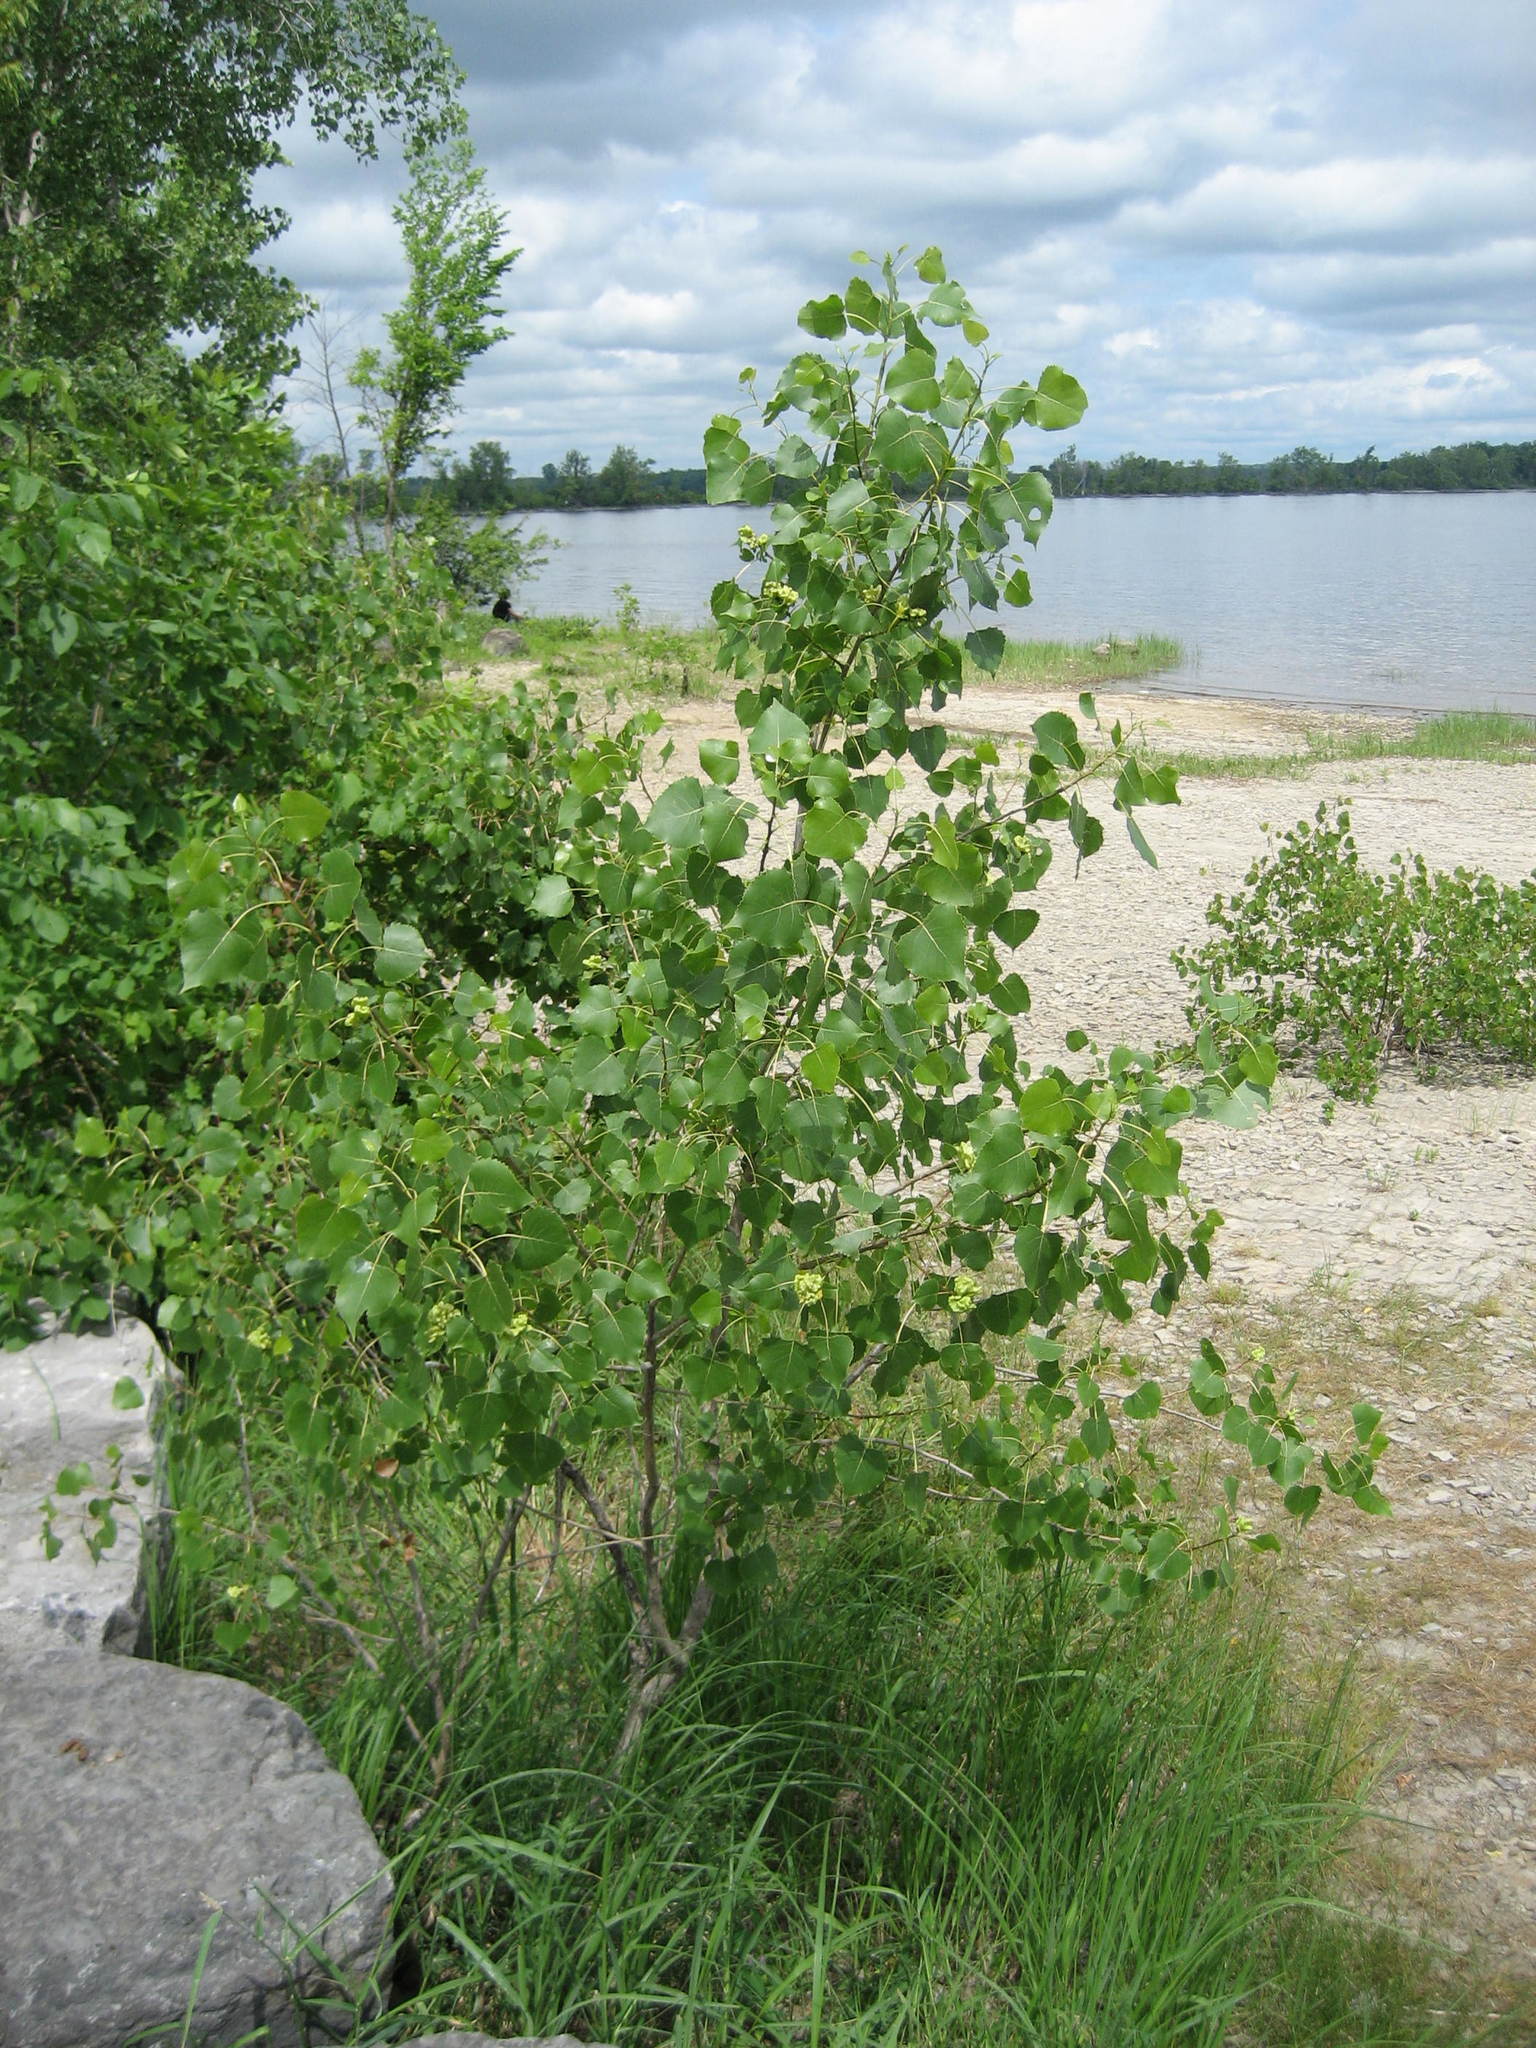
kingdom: Plantae
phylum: Tracheophyta
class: Magnoliopsida
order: Malpighiales
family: Salicaceae
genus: Populus
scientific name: Populus deltoides
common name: Eastern cottonwood
